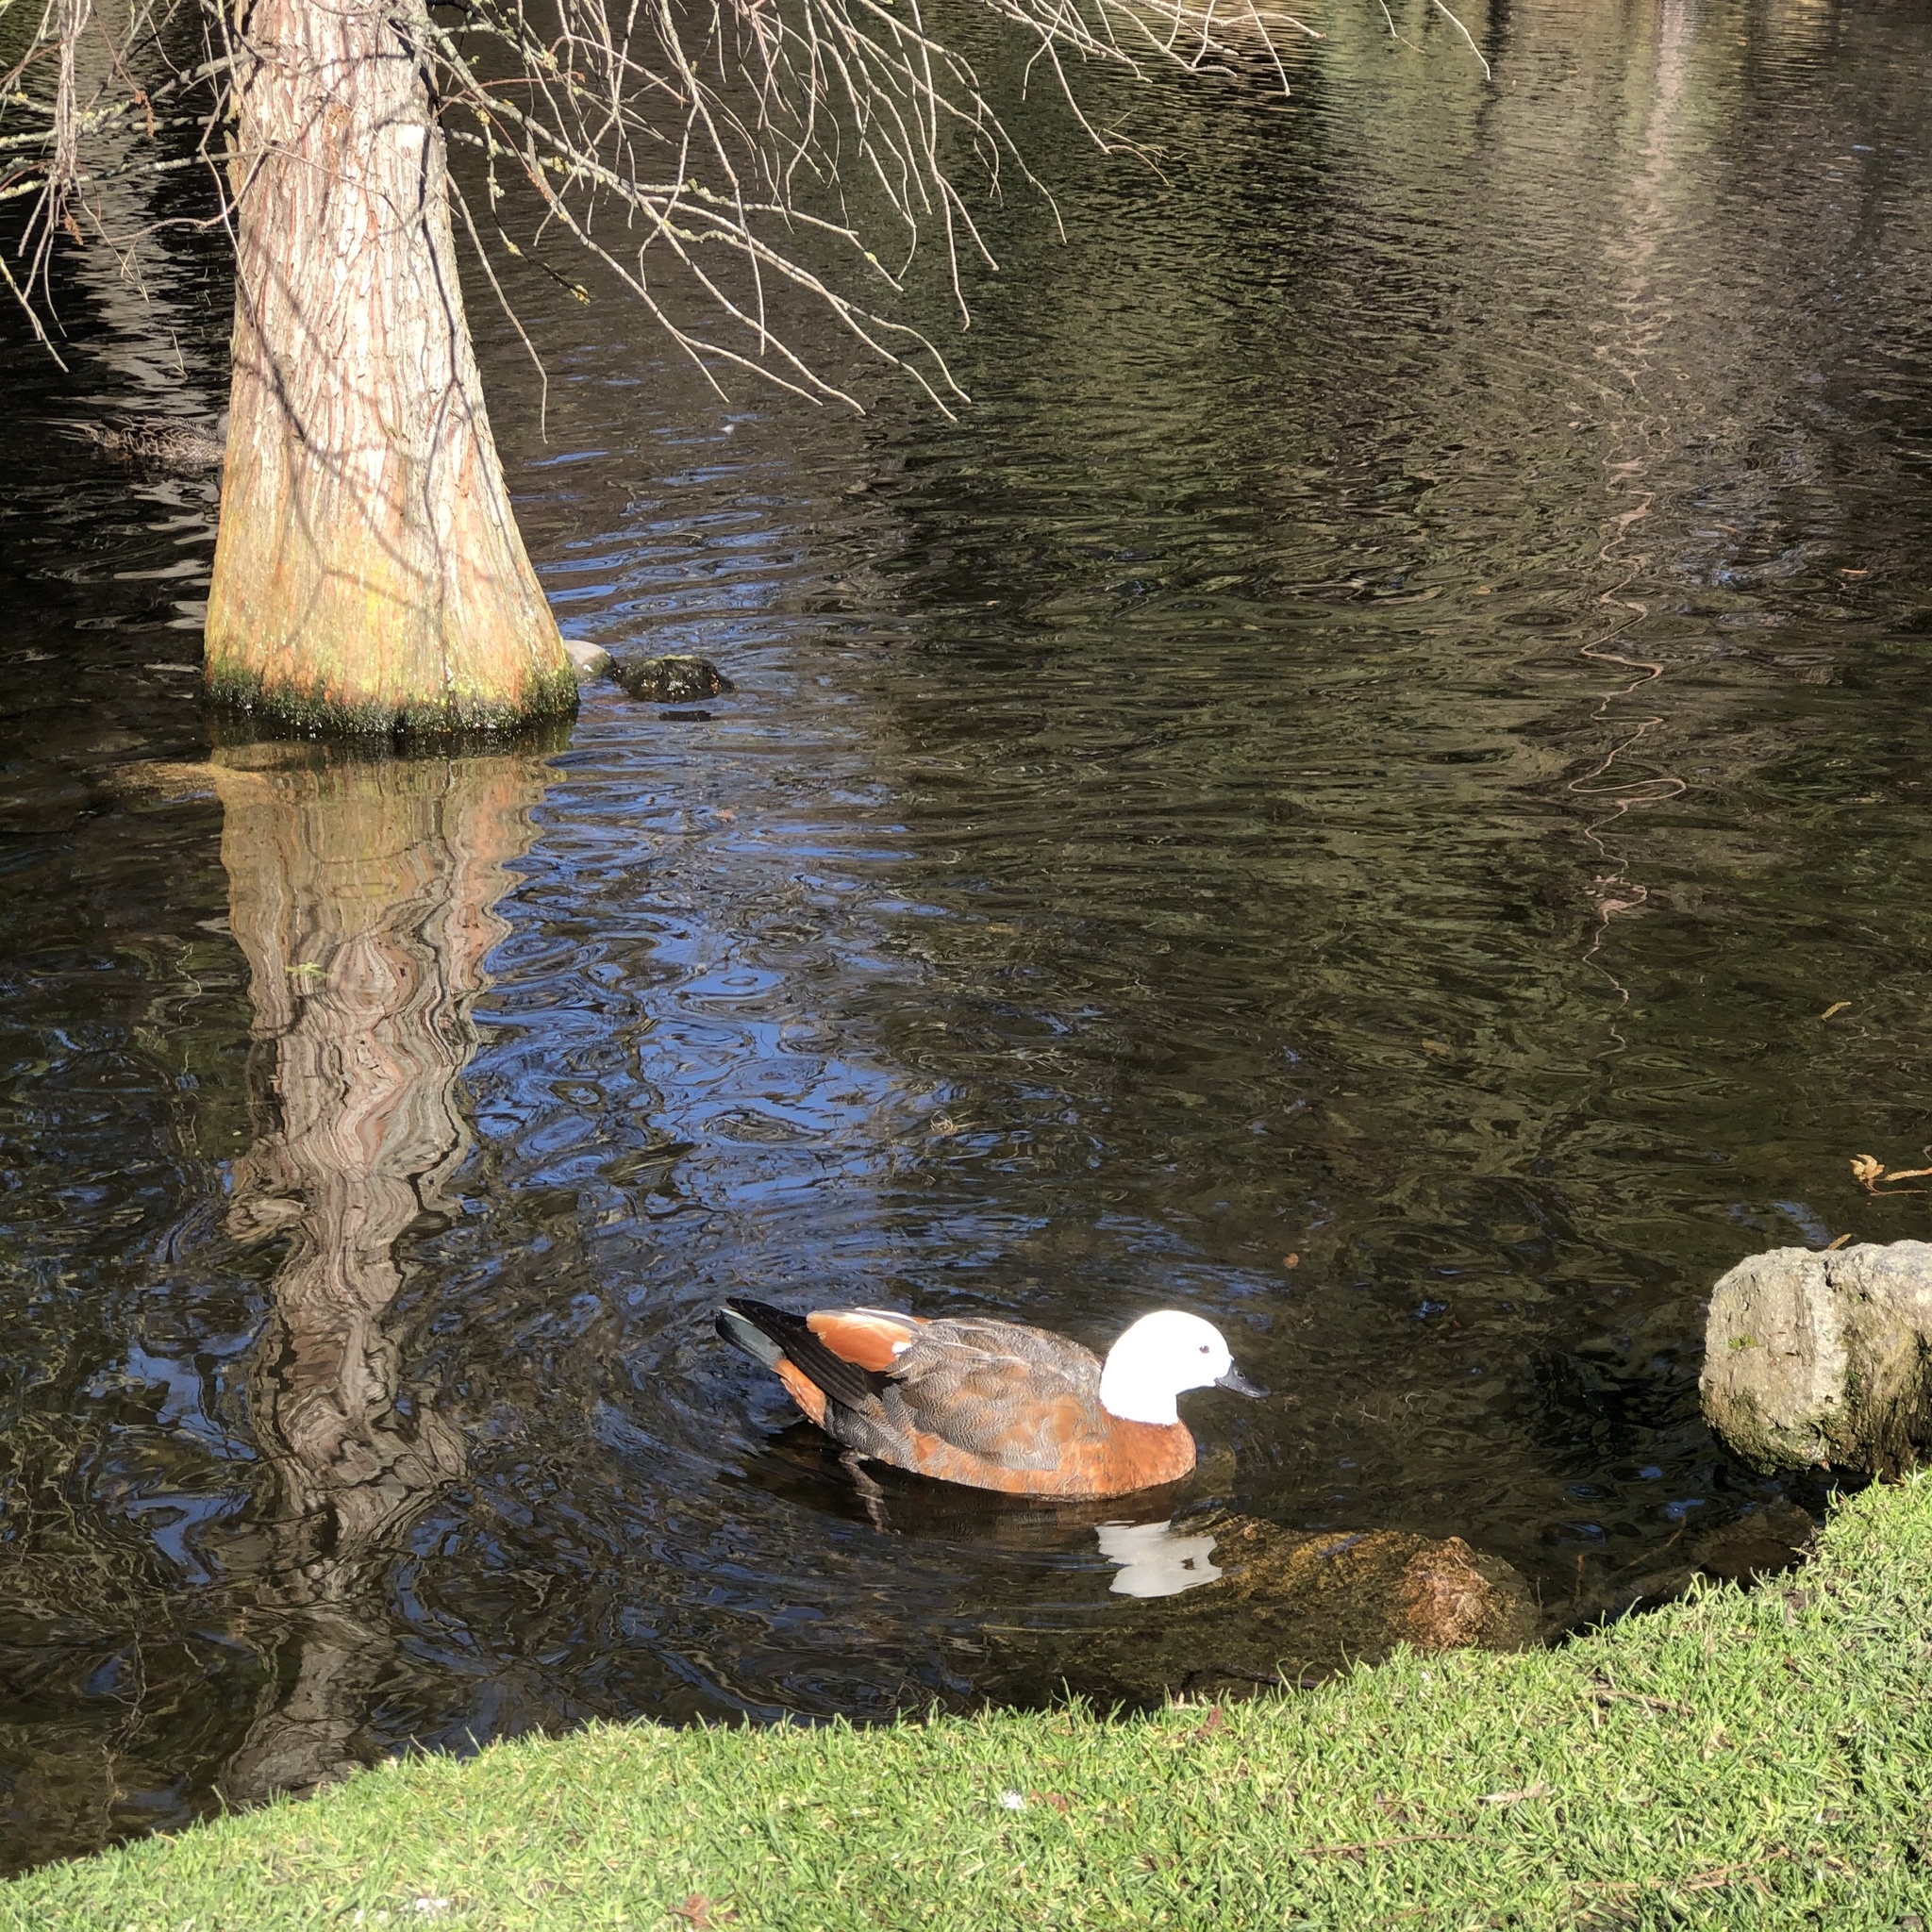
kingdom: Animalia
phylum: Chordata
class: Aves
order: Anseriformes
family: Anatidae
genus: Tadorna
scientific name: Tadorna variegata
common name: Paradise shelduck
